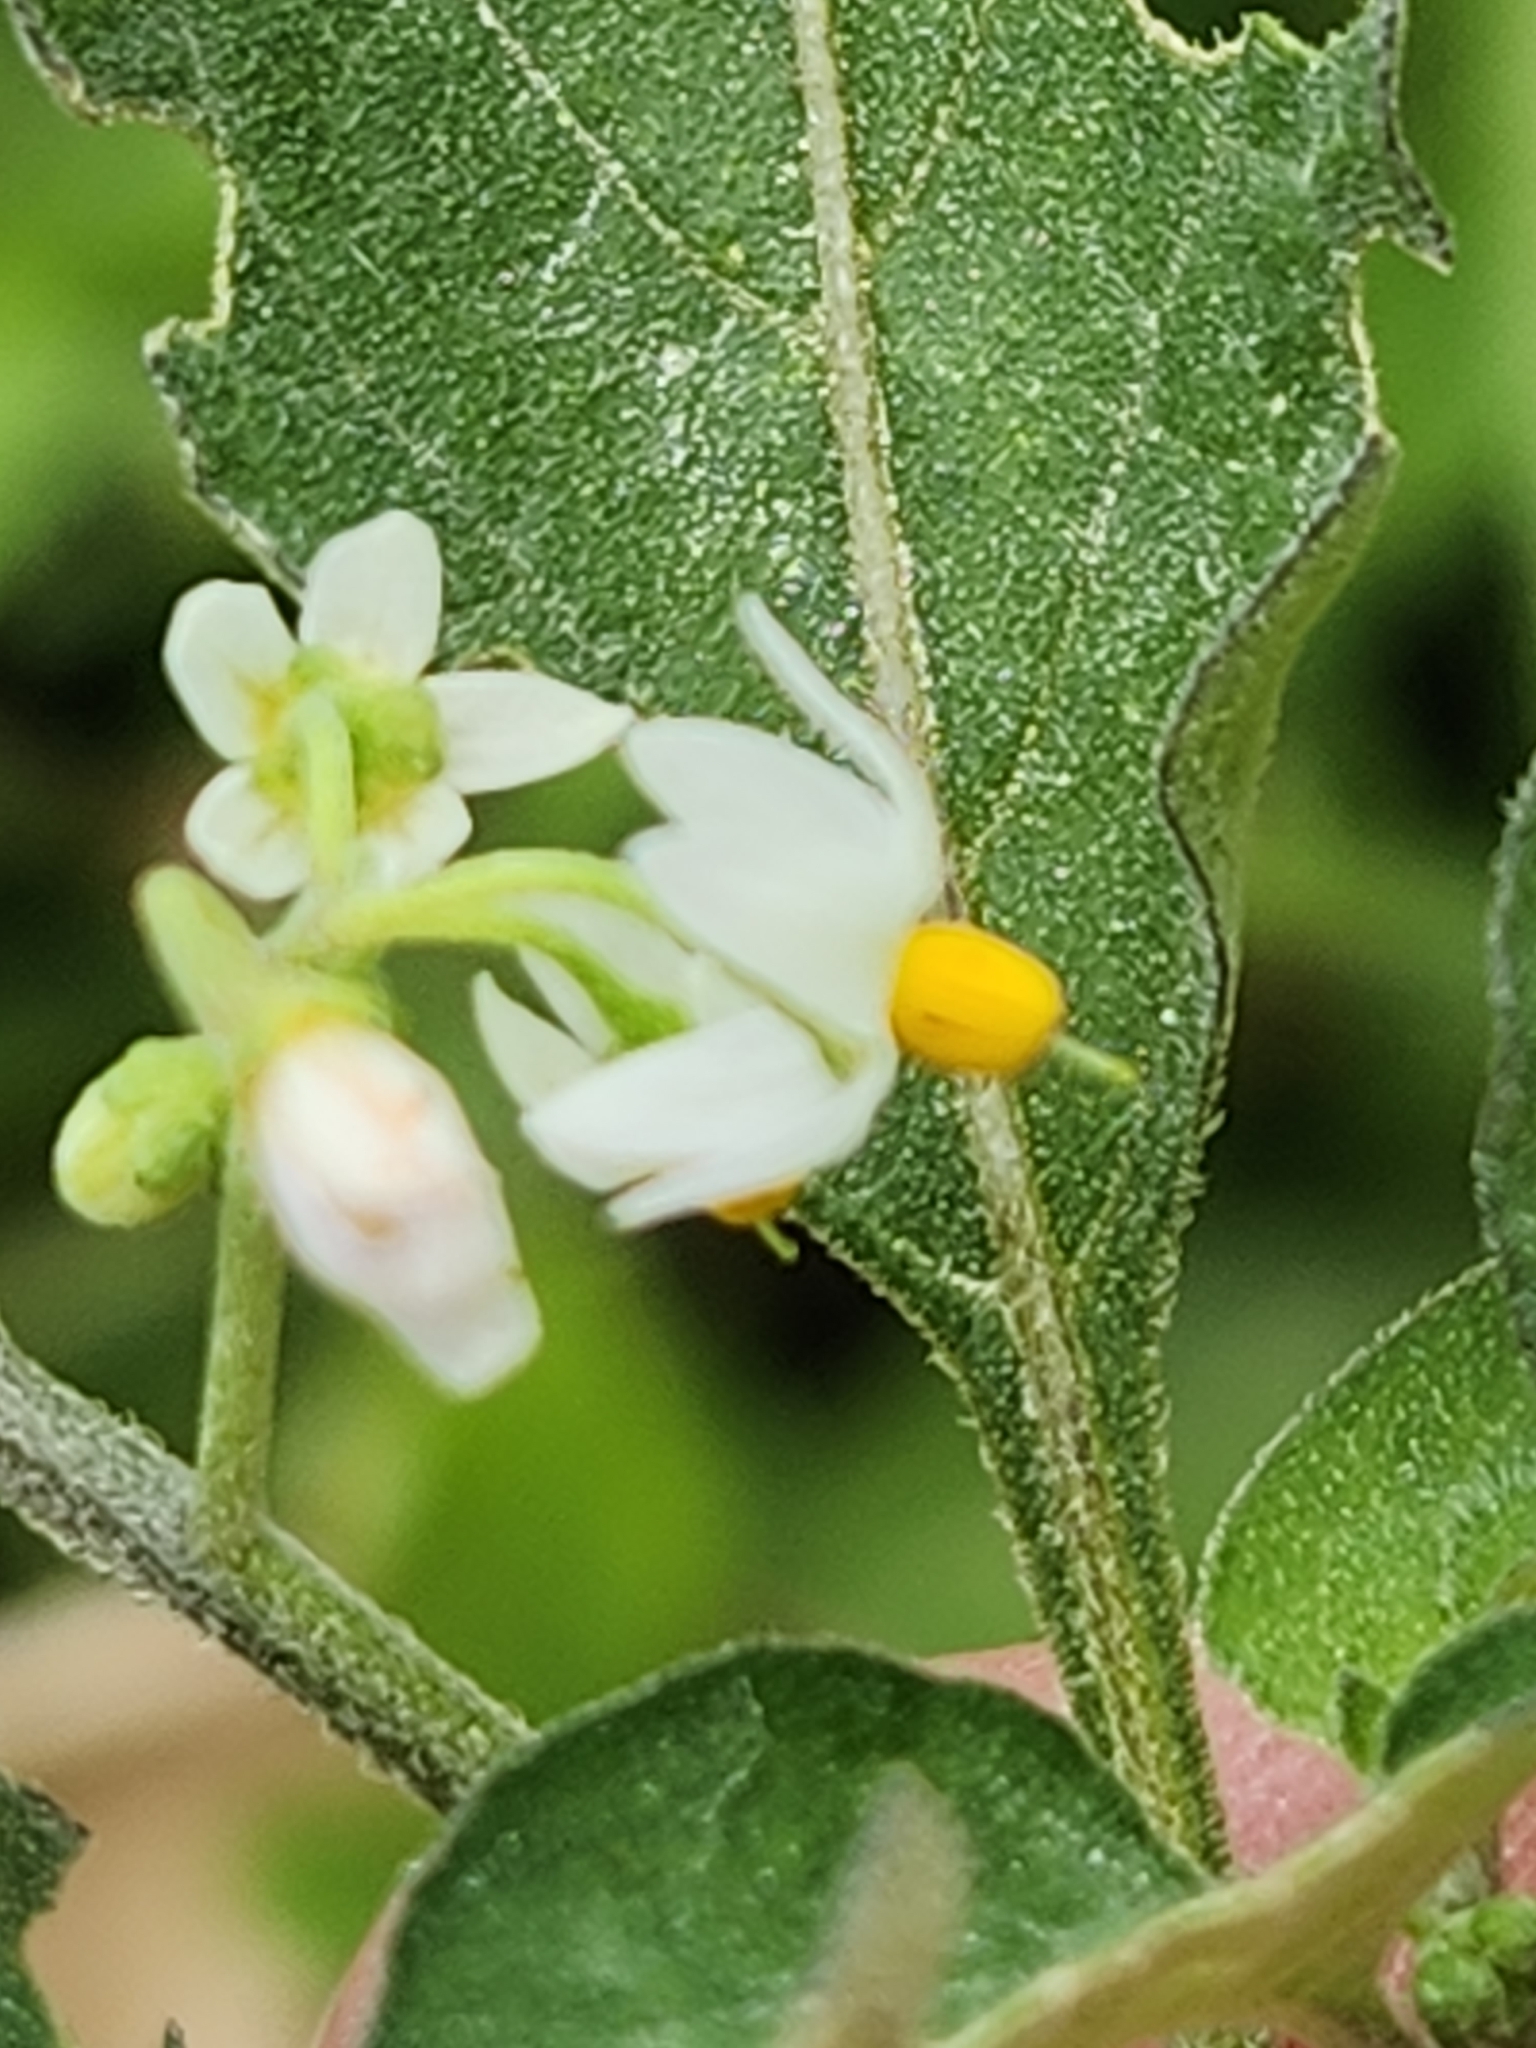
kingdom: Plantae
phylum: Tracheophyta
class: Magnoliopsida
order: Solanales
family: Solanaceae
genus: Solanum
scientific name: Solanum americanum
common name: American black nightshade
